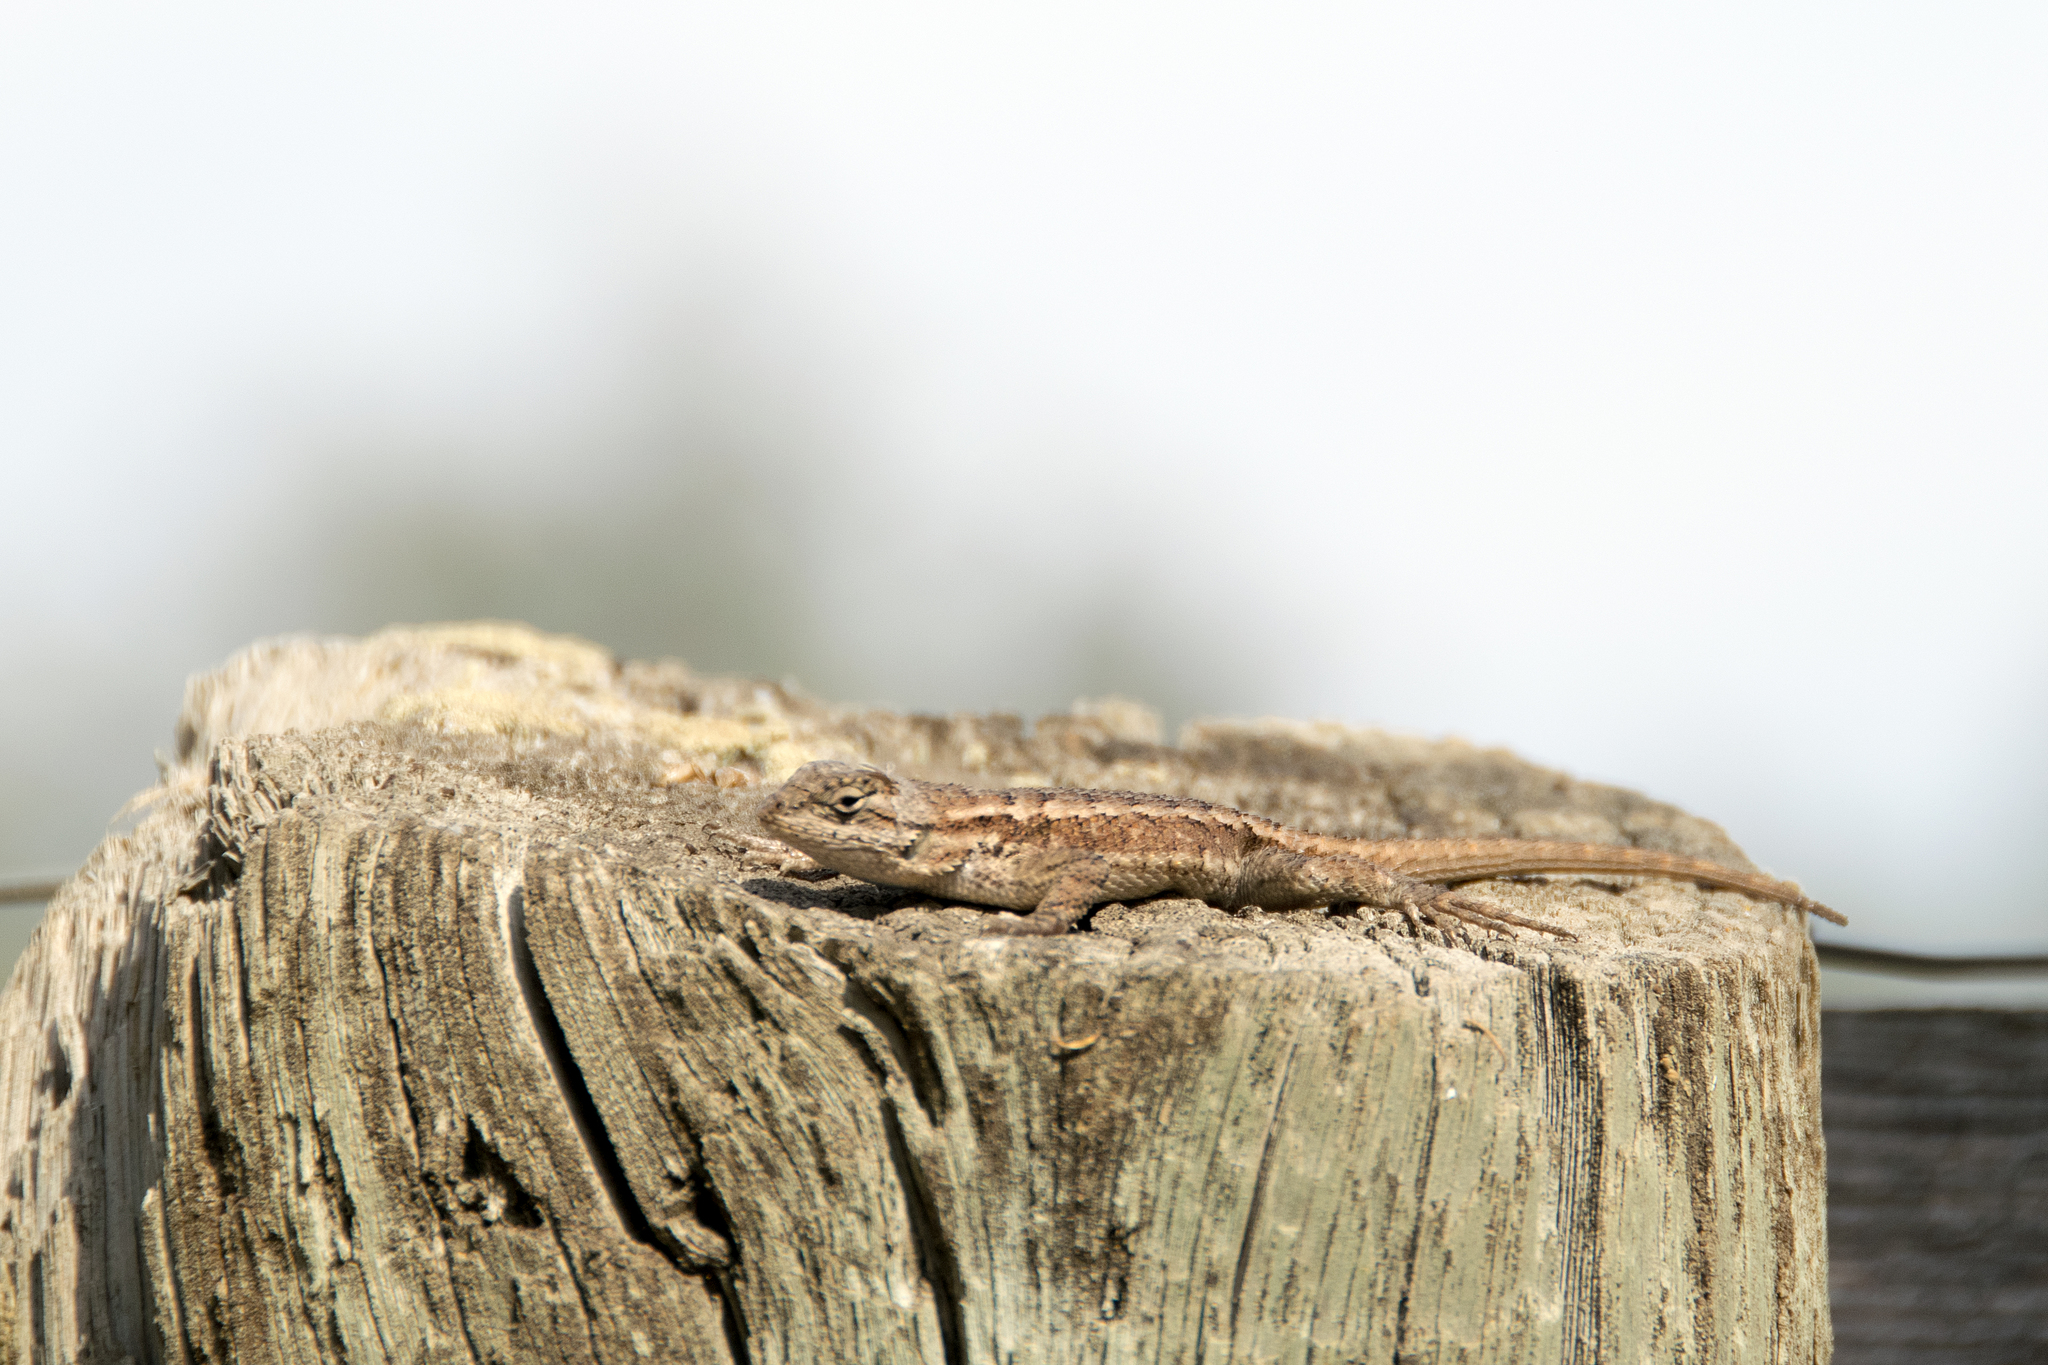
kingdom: Animalia
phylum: Chordata
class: Squamata
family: Phrynosomatidae
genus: Sceloporus
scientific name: Sceloporus occidentalis
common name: Western fence lizard
